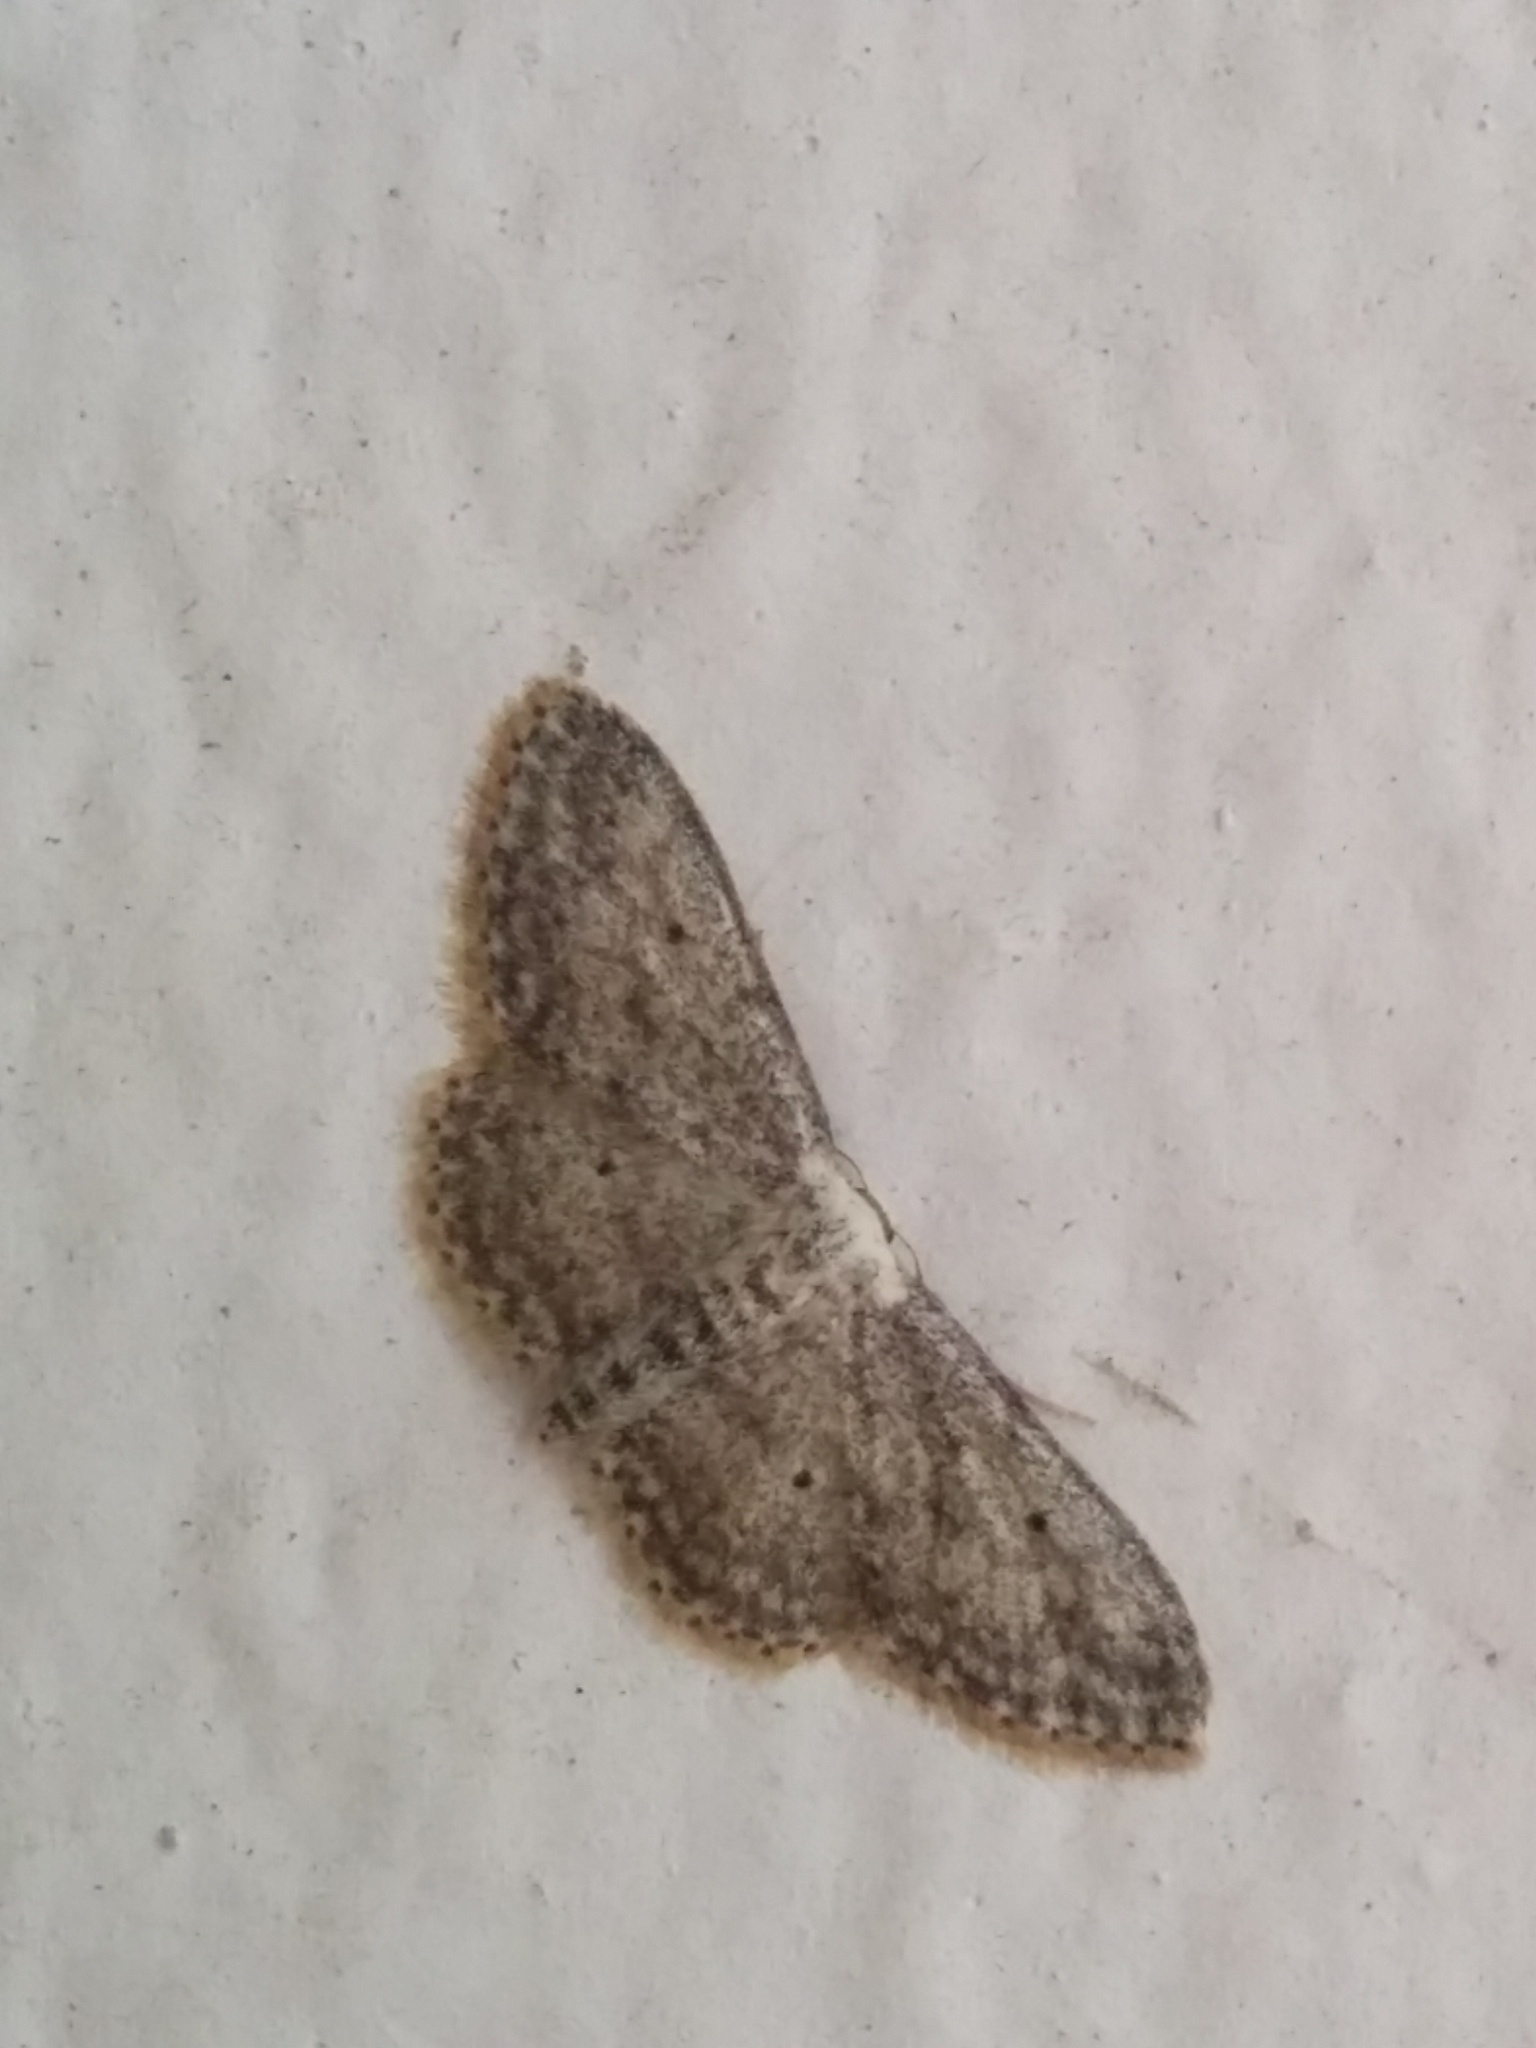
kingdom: Animalia
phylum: Arthropoda
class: Insecta
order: Lepidoptera
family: Geometridae
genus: Idaea
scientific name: Idaea seriata
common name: Small dusty wave
